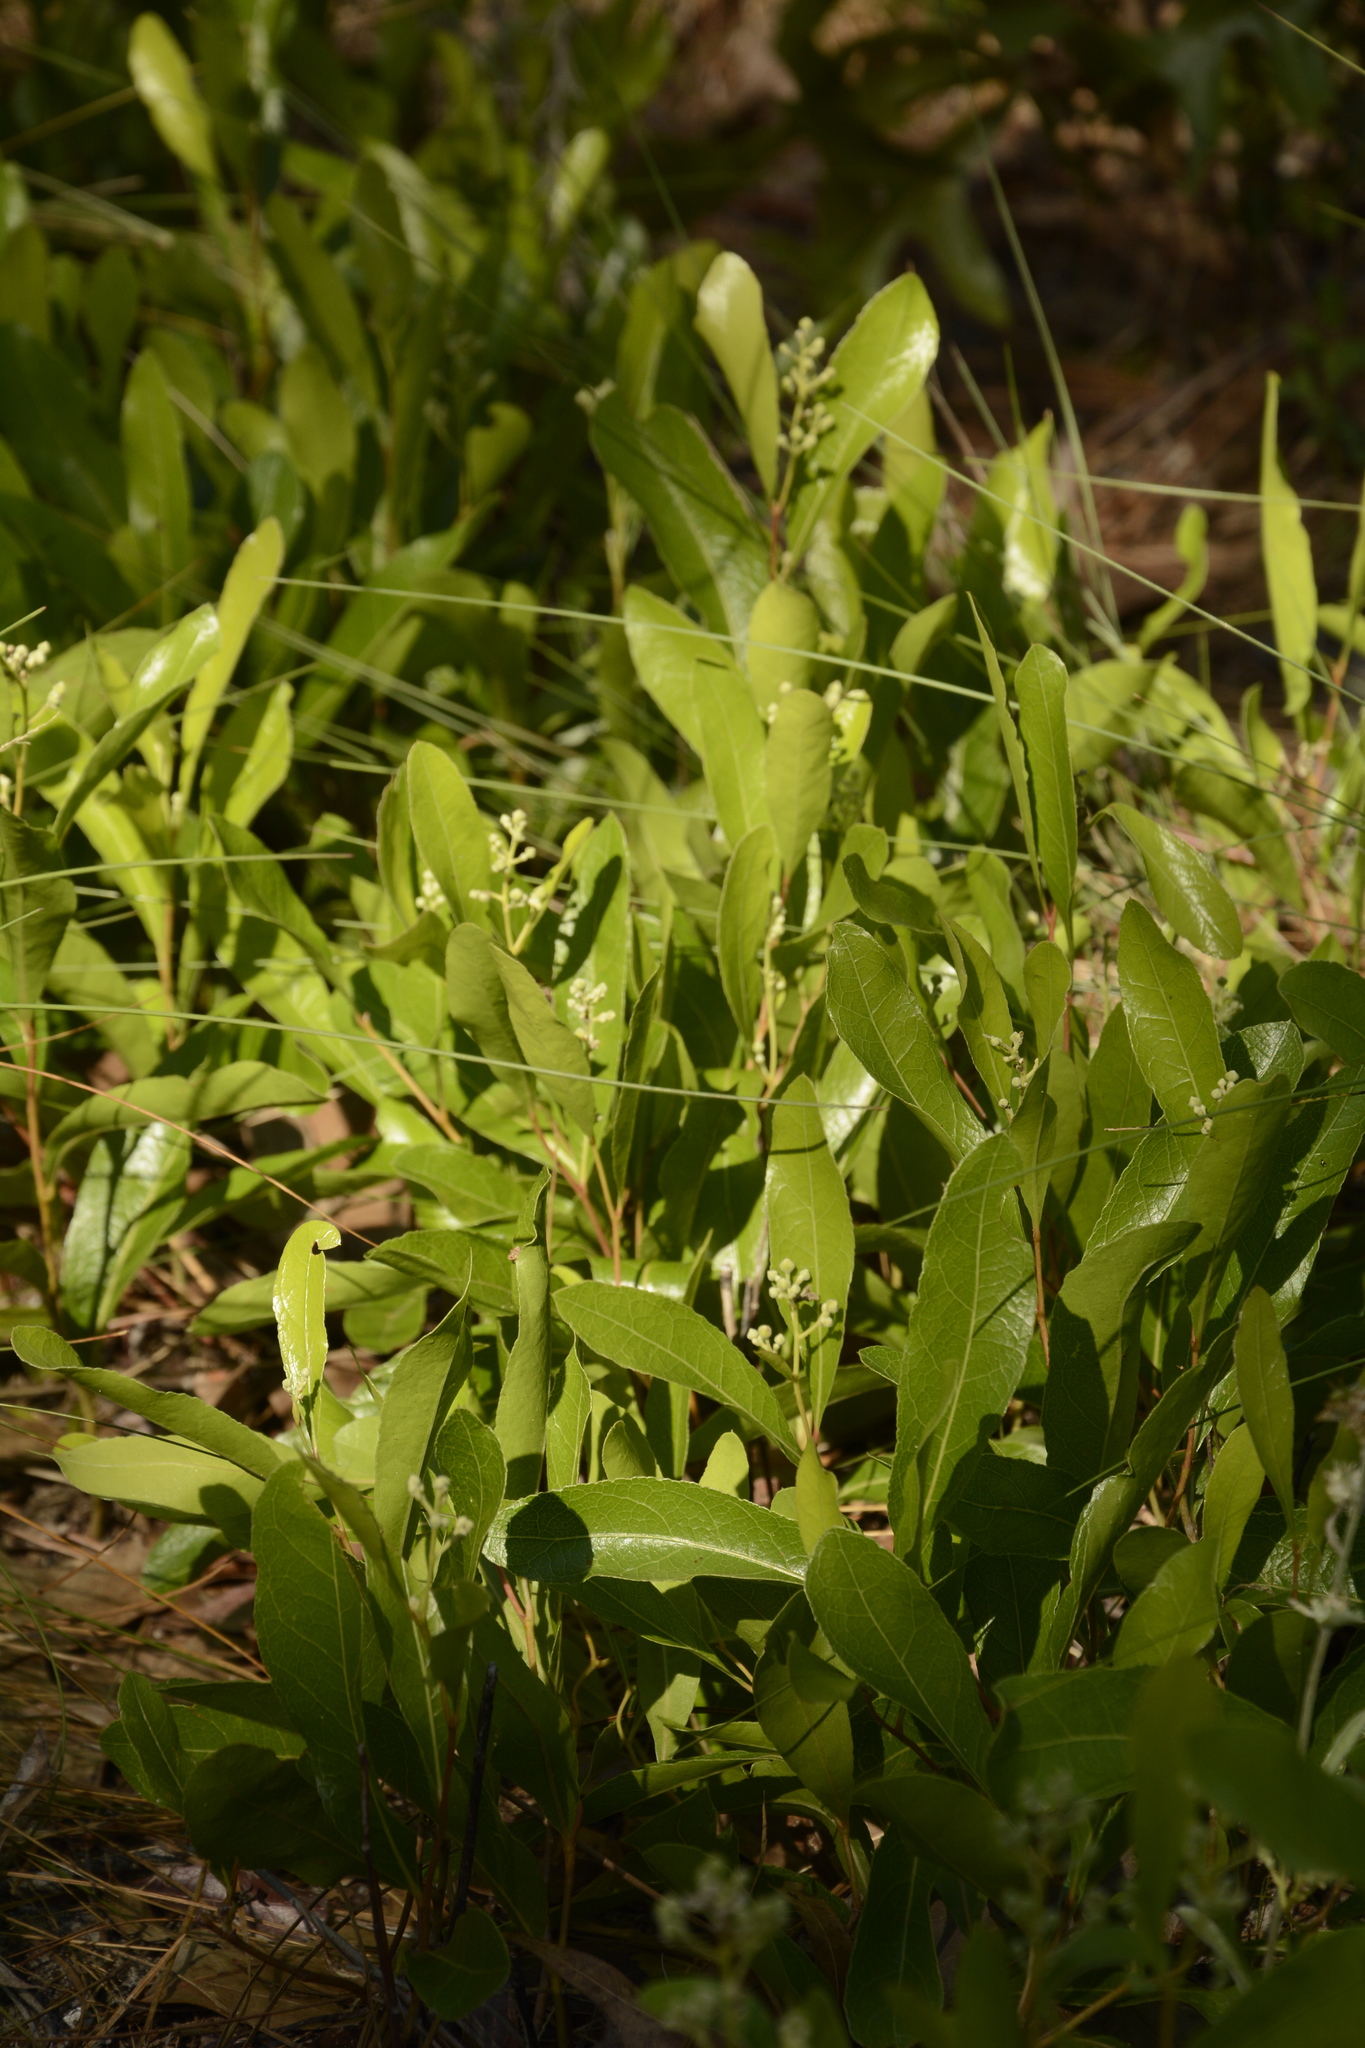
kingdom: Plantae
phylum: Tracheophyta
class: Magnoliopsida
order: Malpighiales
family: Chrysobalanaceae
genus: Geobalanus
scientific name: Geobalanus oblongifolius
